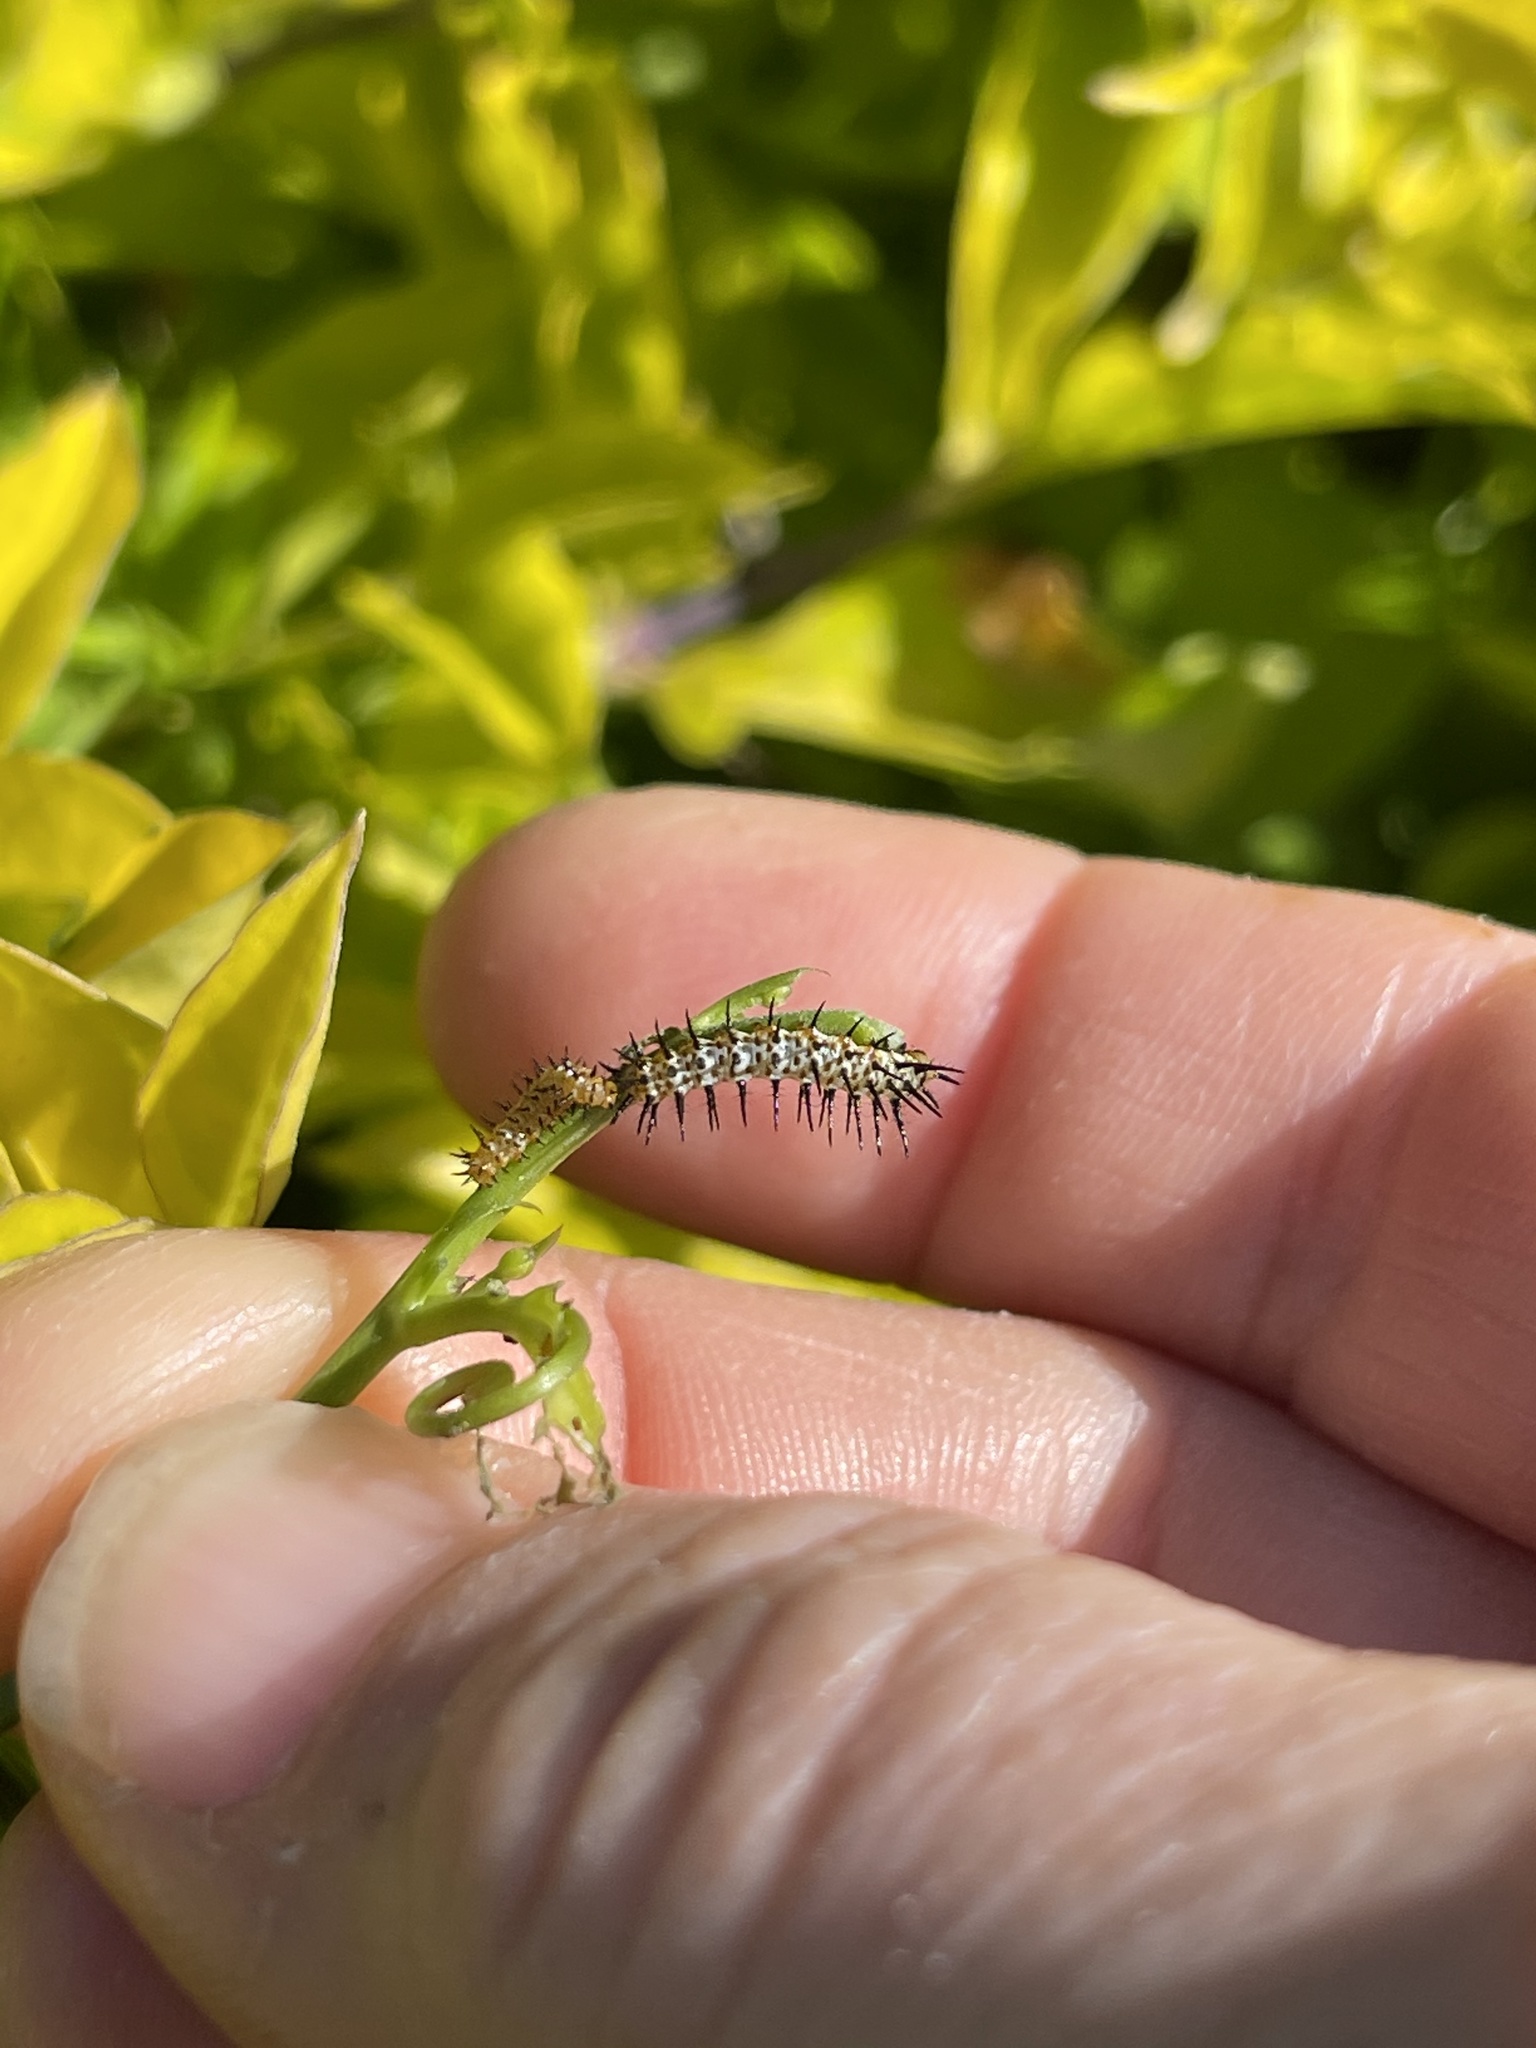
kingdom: Animalia
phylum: Arthropoda
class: Insecta
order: Lepidoptera
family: Nymphalidae
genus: Heliconius
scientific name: Heliconius charithonia
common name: Zebra long wing
